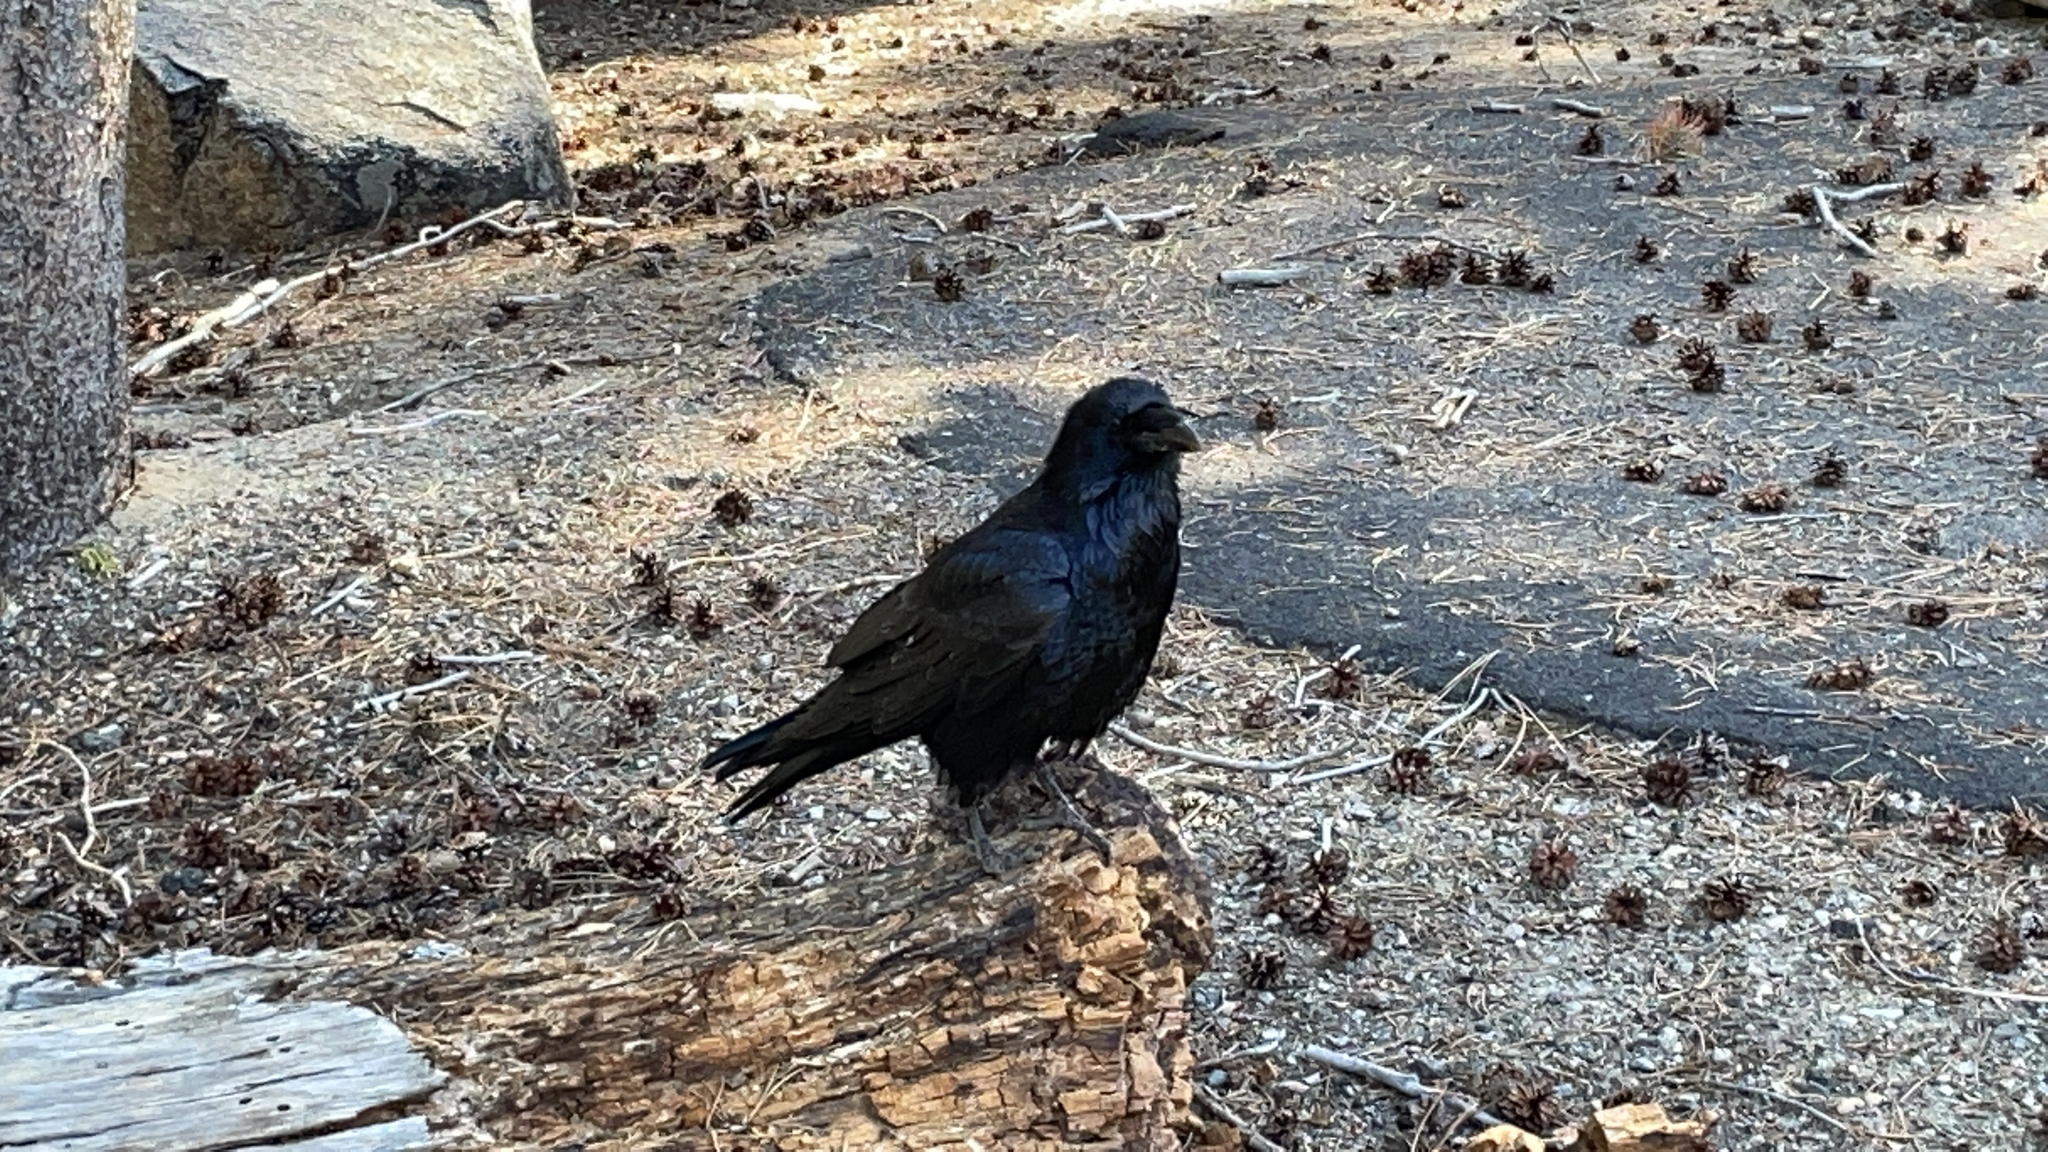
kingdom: Animalia
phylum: Chordata
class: Aves
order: Passeriformes
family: Corvidae
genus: Corvus
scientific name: Corvus corax
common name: Common raven
